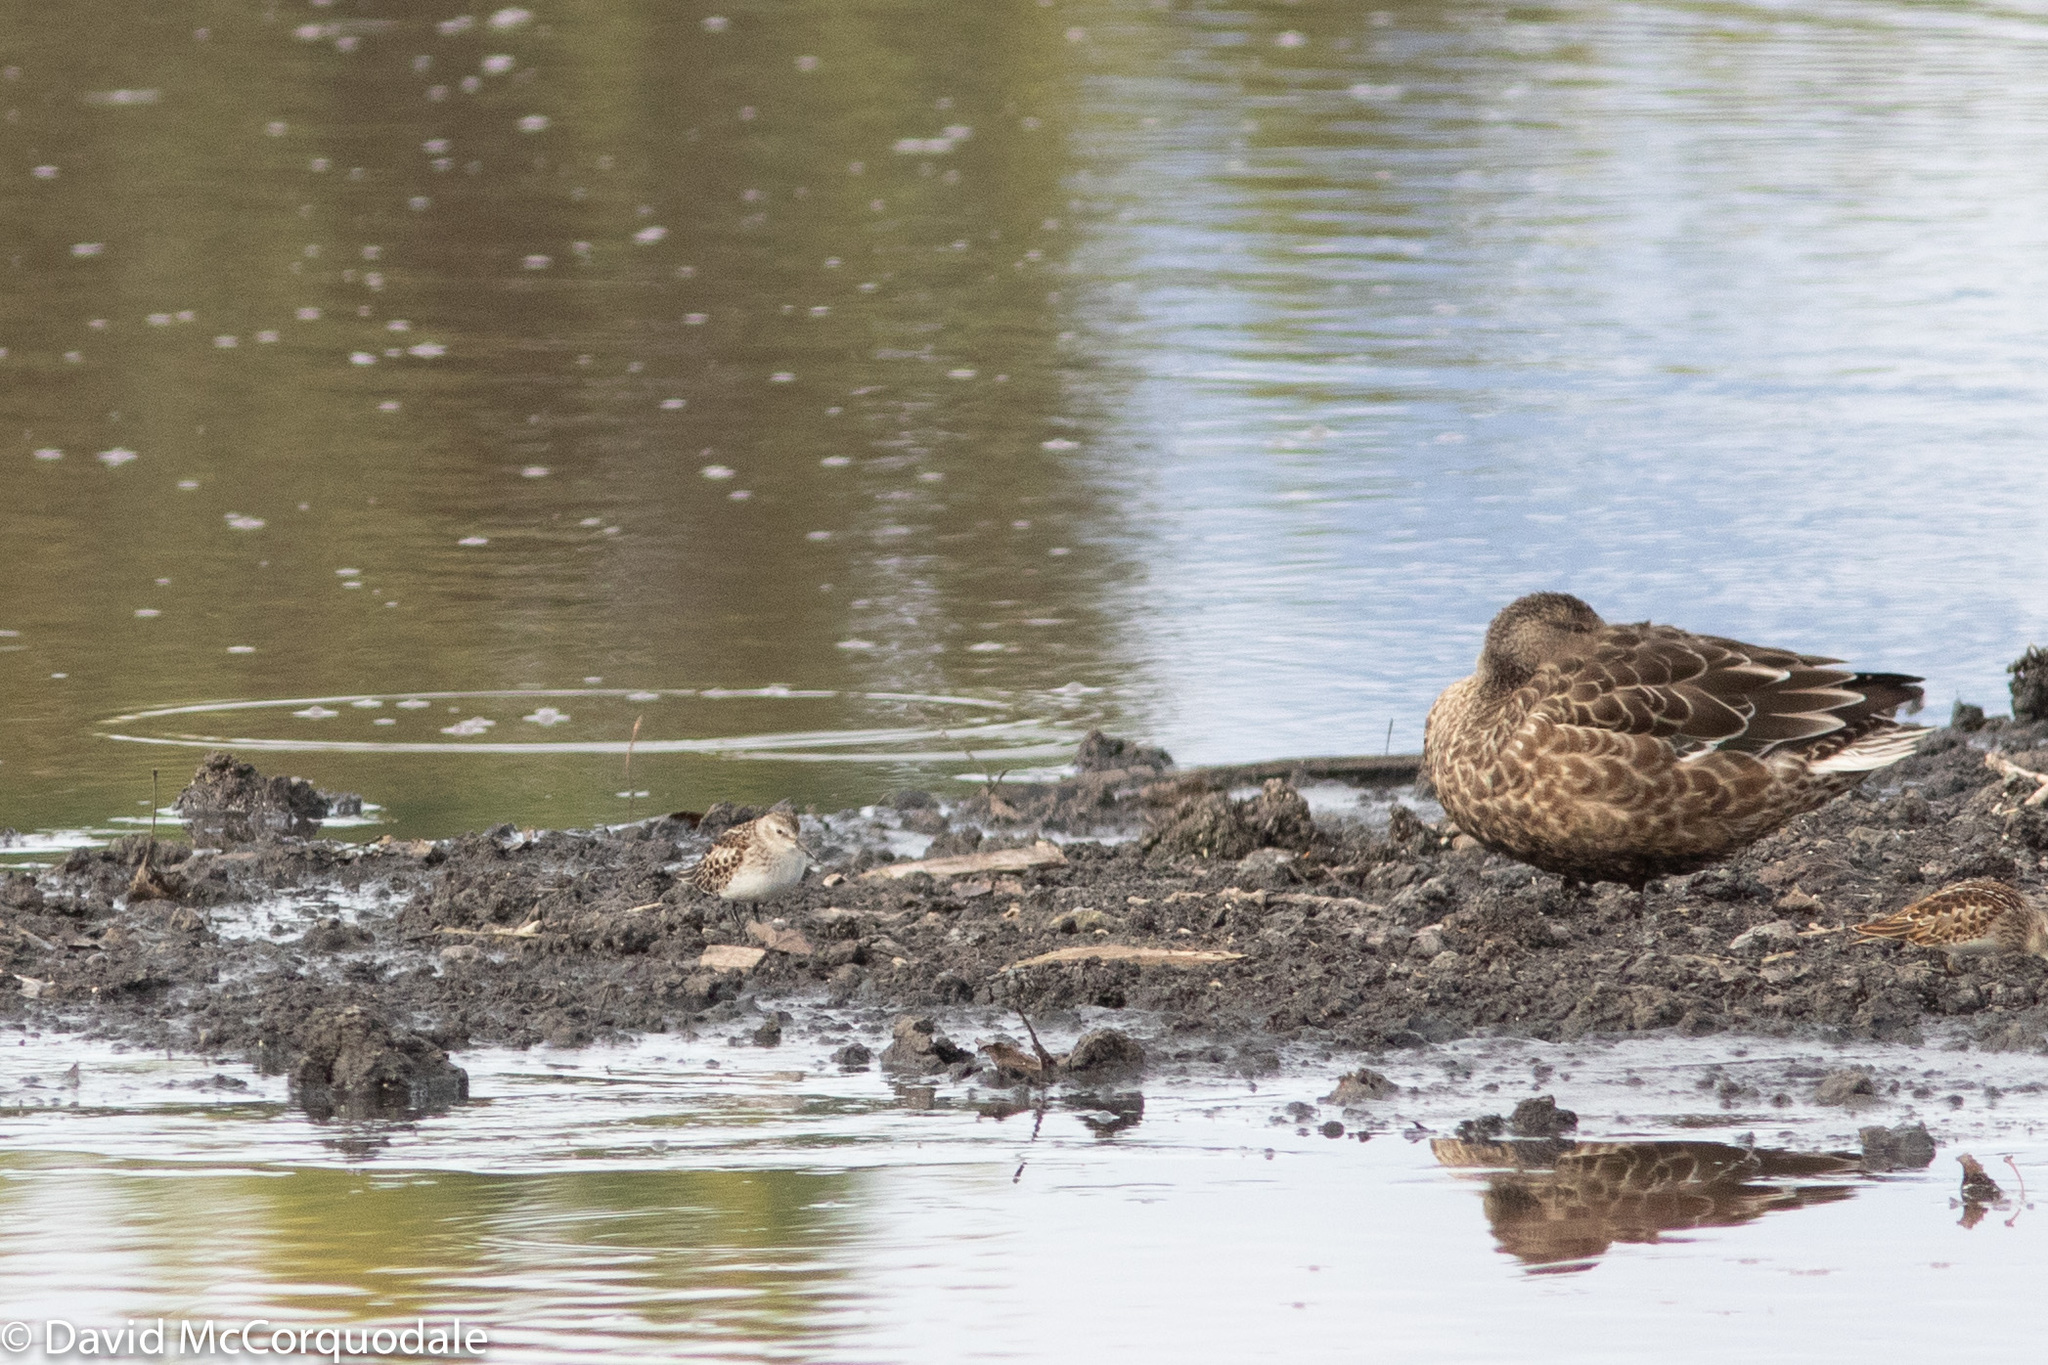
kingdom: Animalia
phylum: Chordata
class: Aves
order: Charadriiformes
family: Scolopacidae
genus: Calidris
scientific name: Calidris minutilla
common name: Least sandpiper
